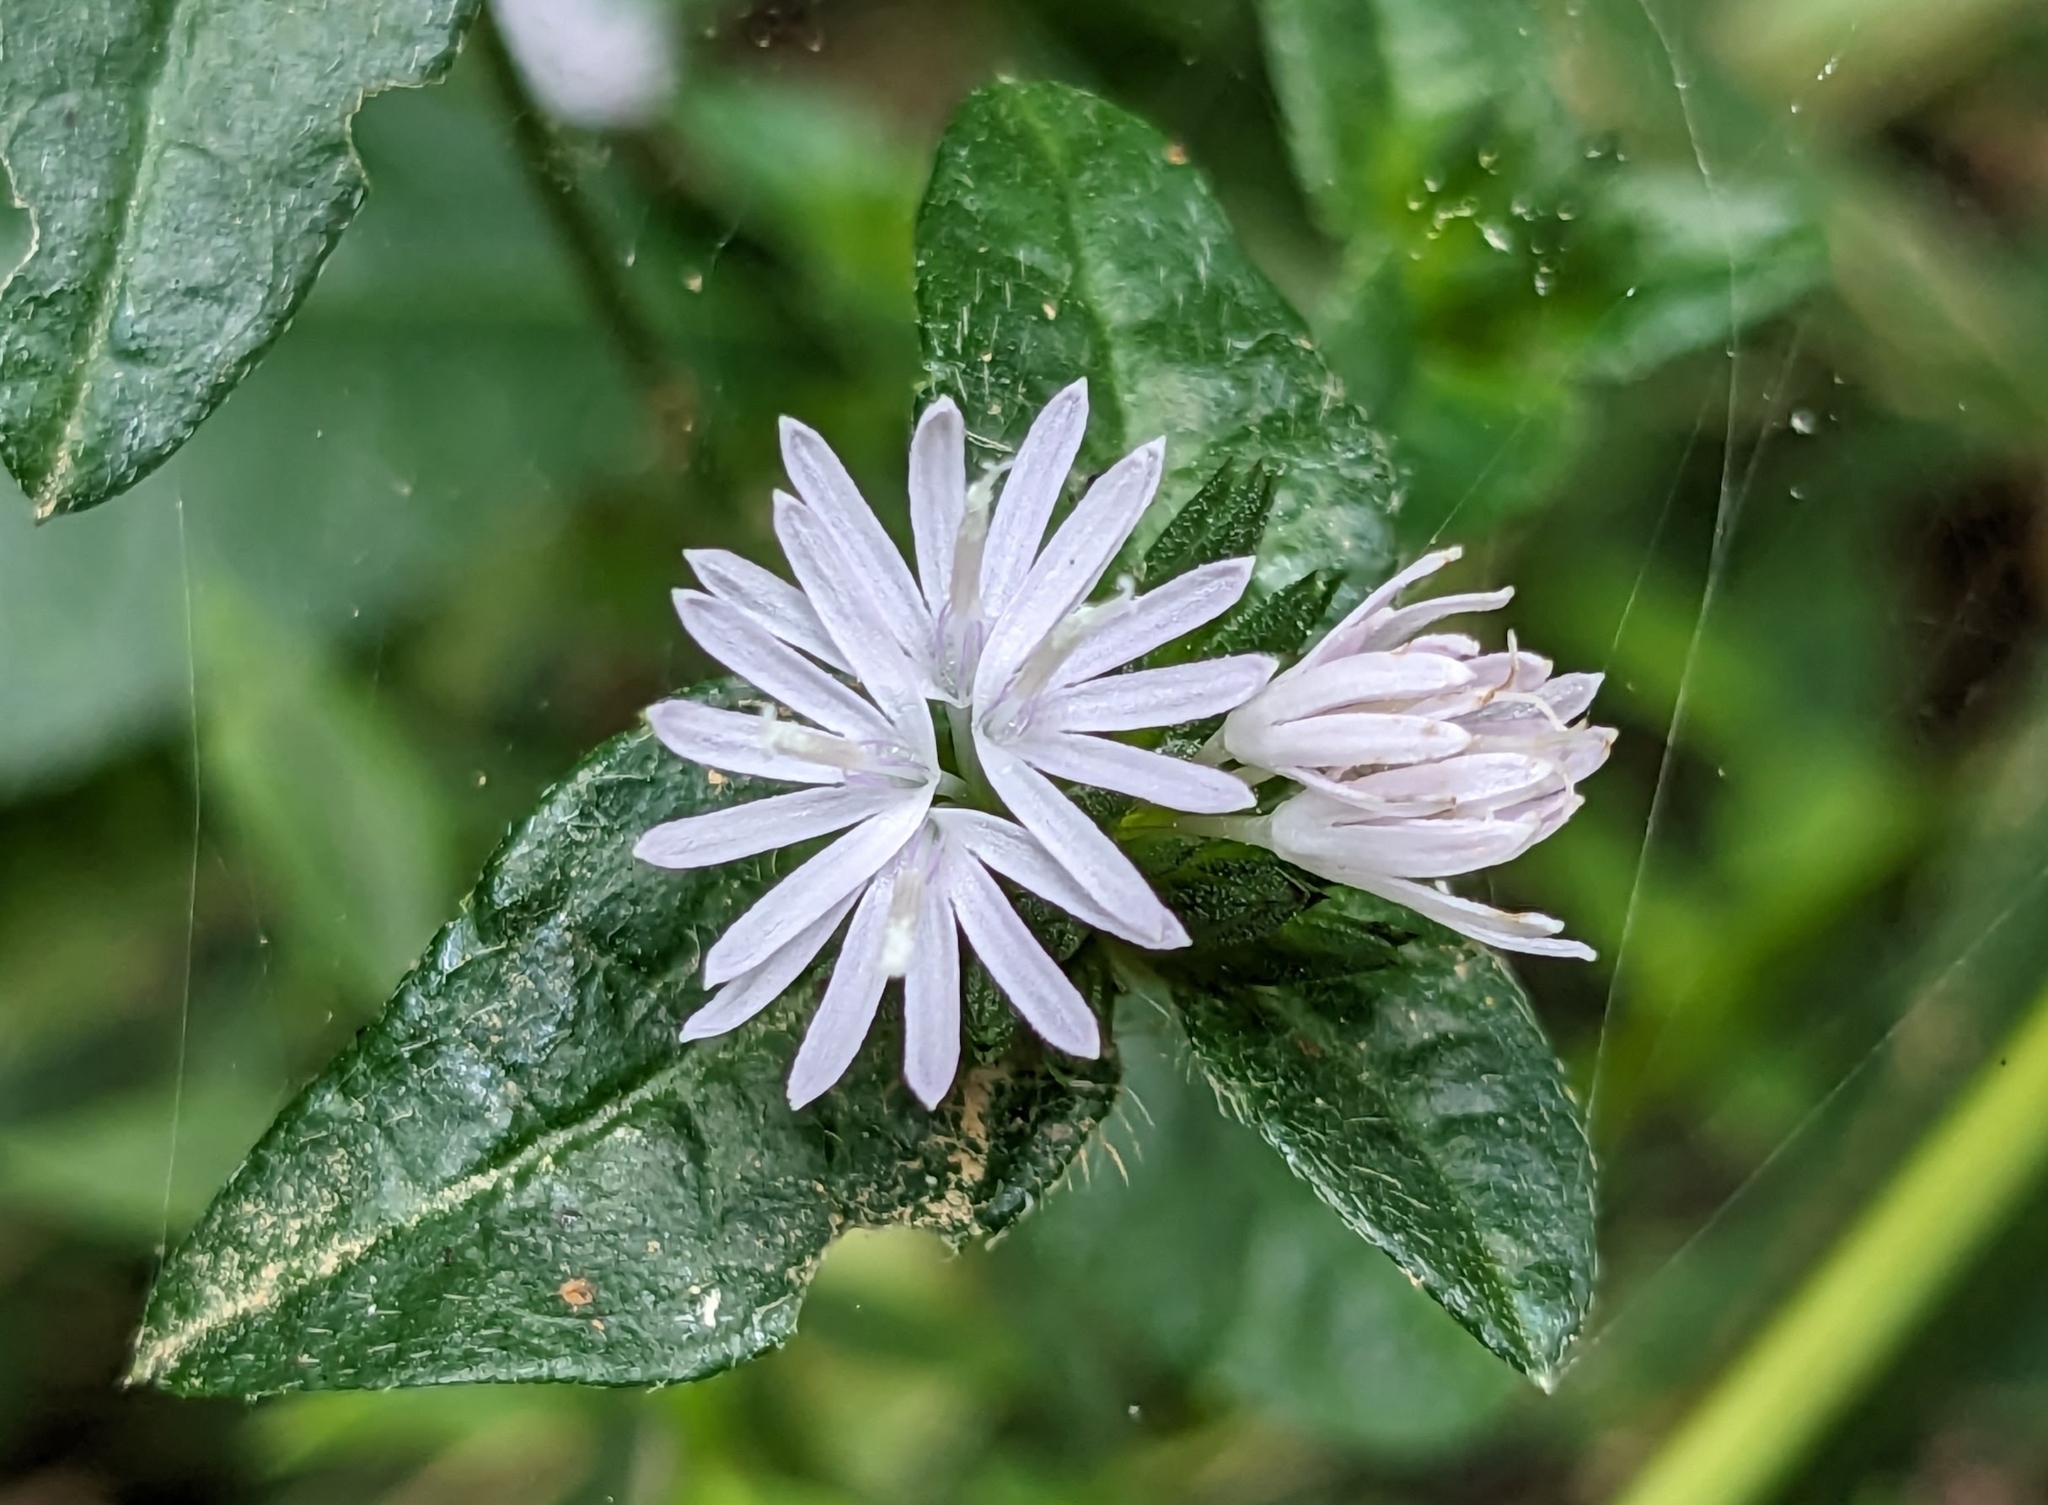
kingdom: Plantae
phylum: Tracheophyta
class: Magnoliopsida
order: Asterales
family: Asteraceae
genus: Elephantopus
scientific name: Elephantopus carolinianus
